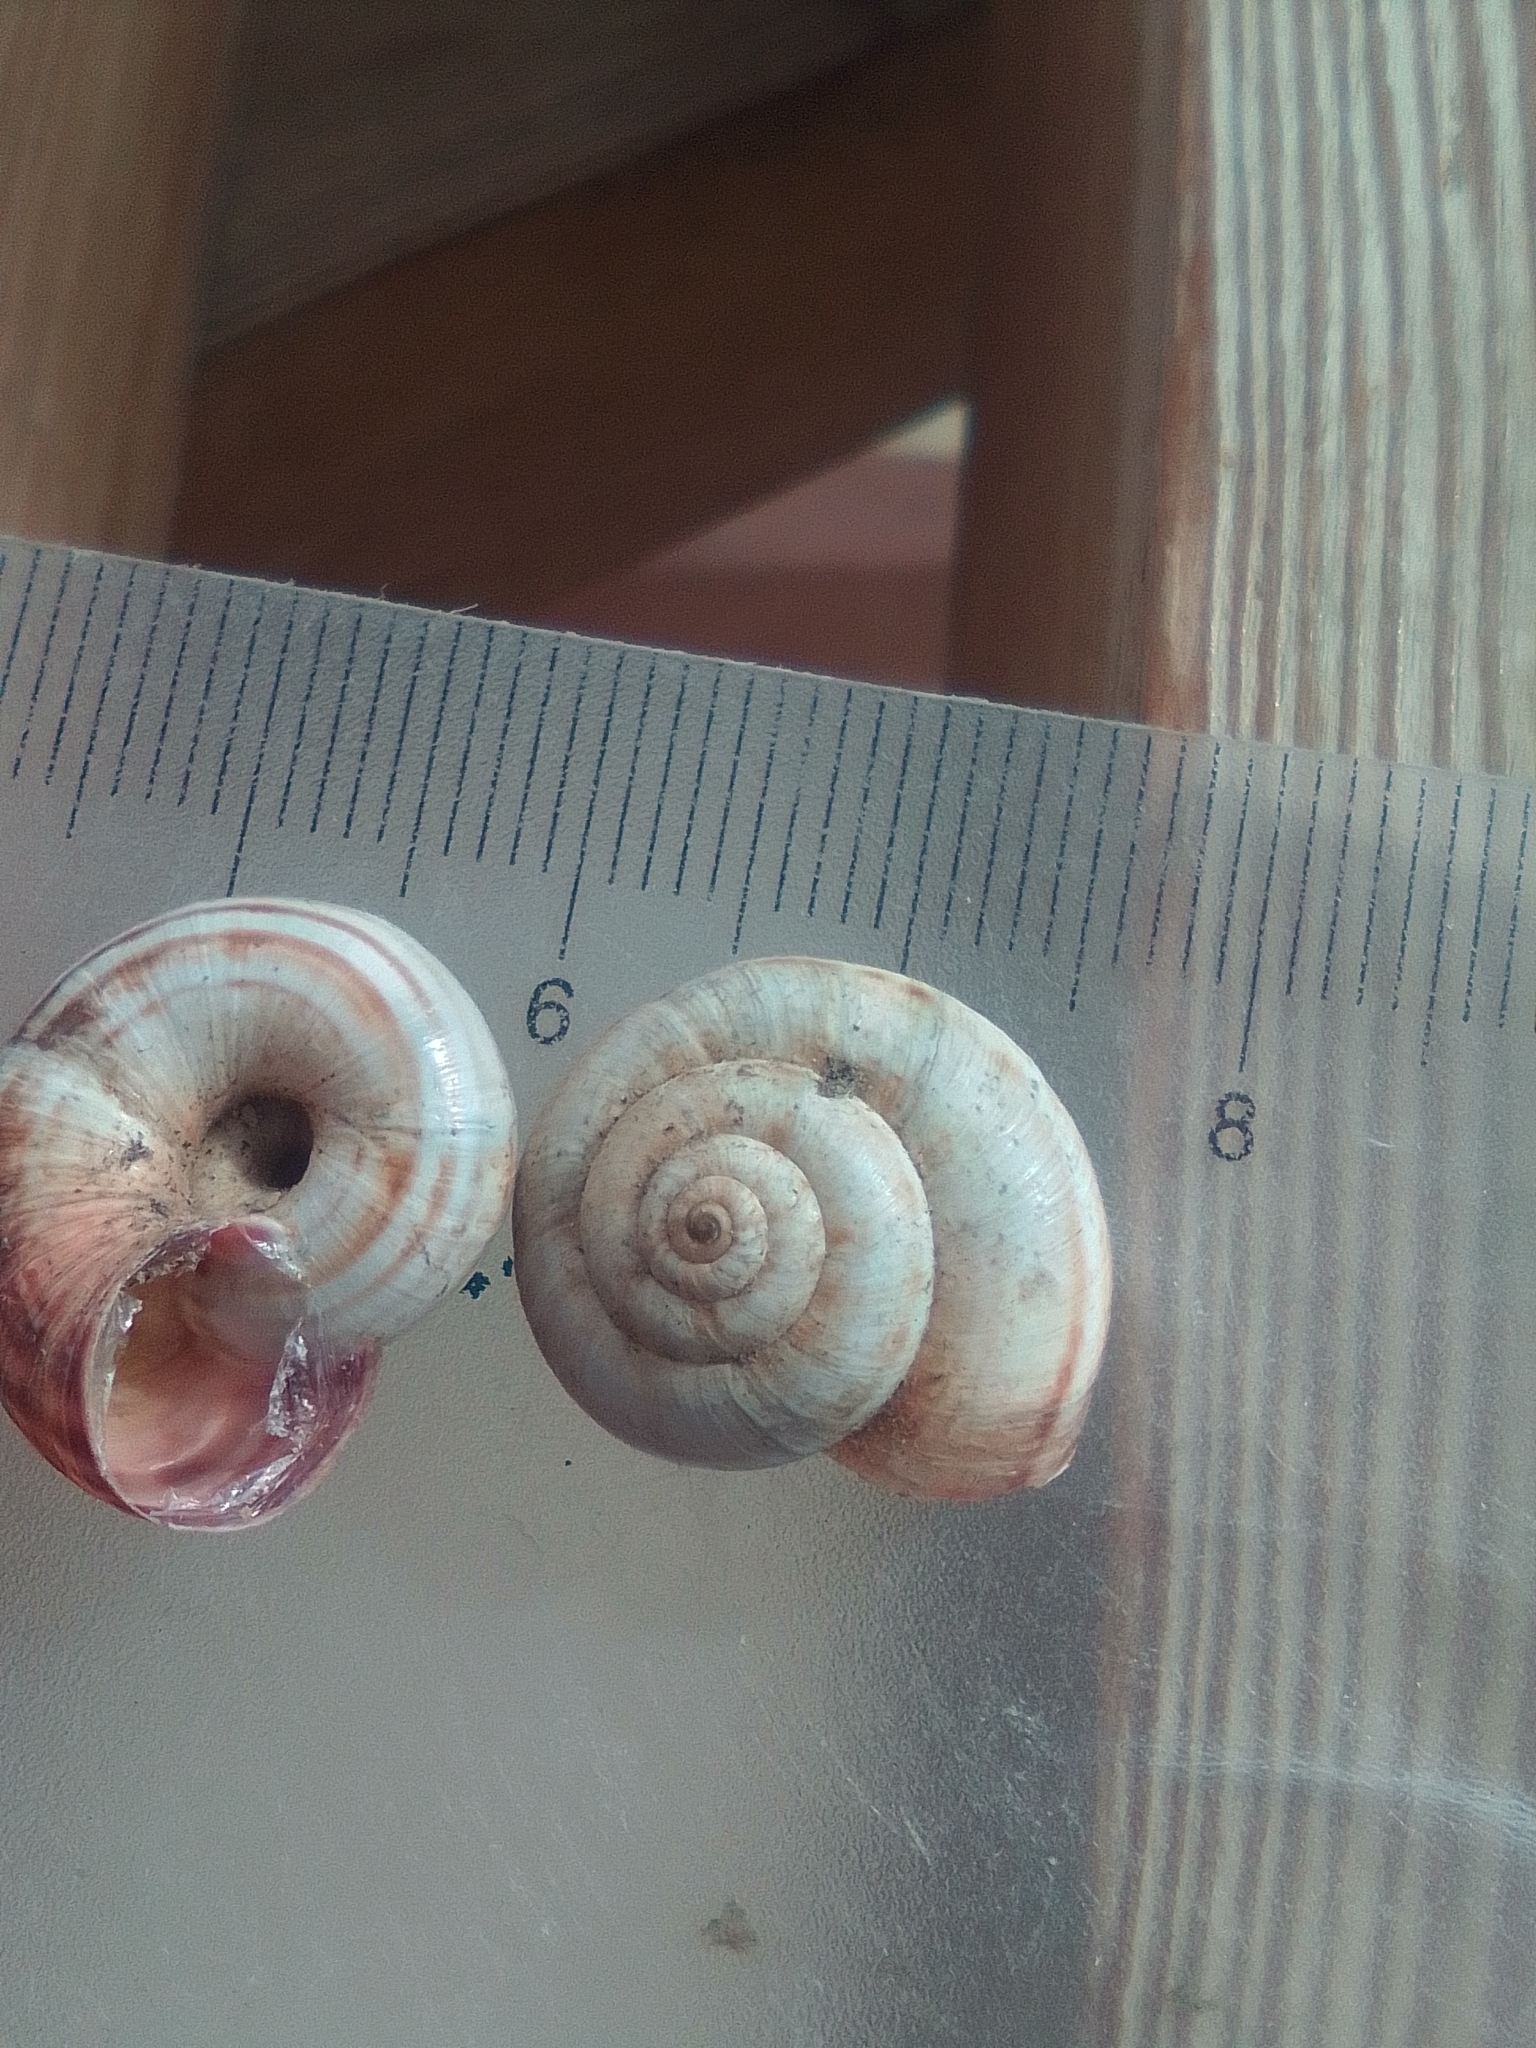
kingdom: Animalia
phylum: Mollusca
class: Gastropoda
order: Stylommatophora
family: Geomitridae
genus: Xeropicta
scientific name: Xeropicta derbentina
